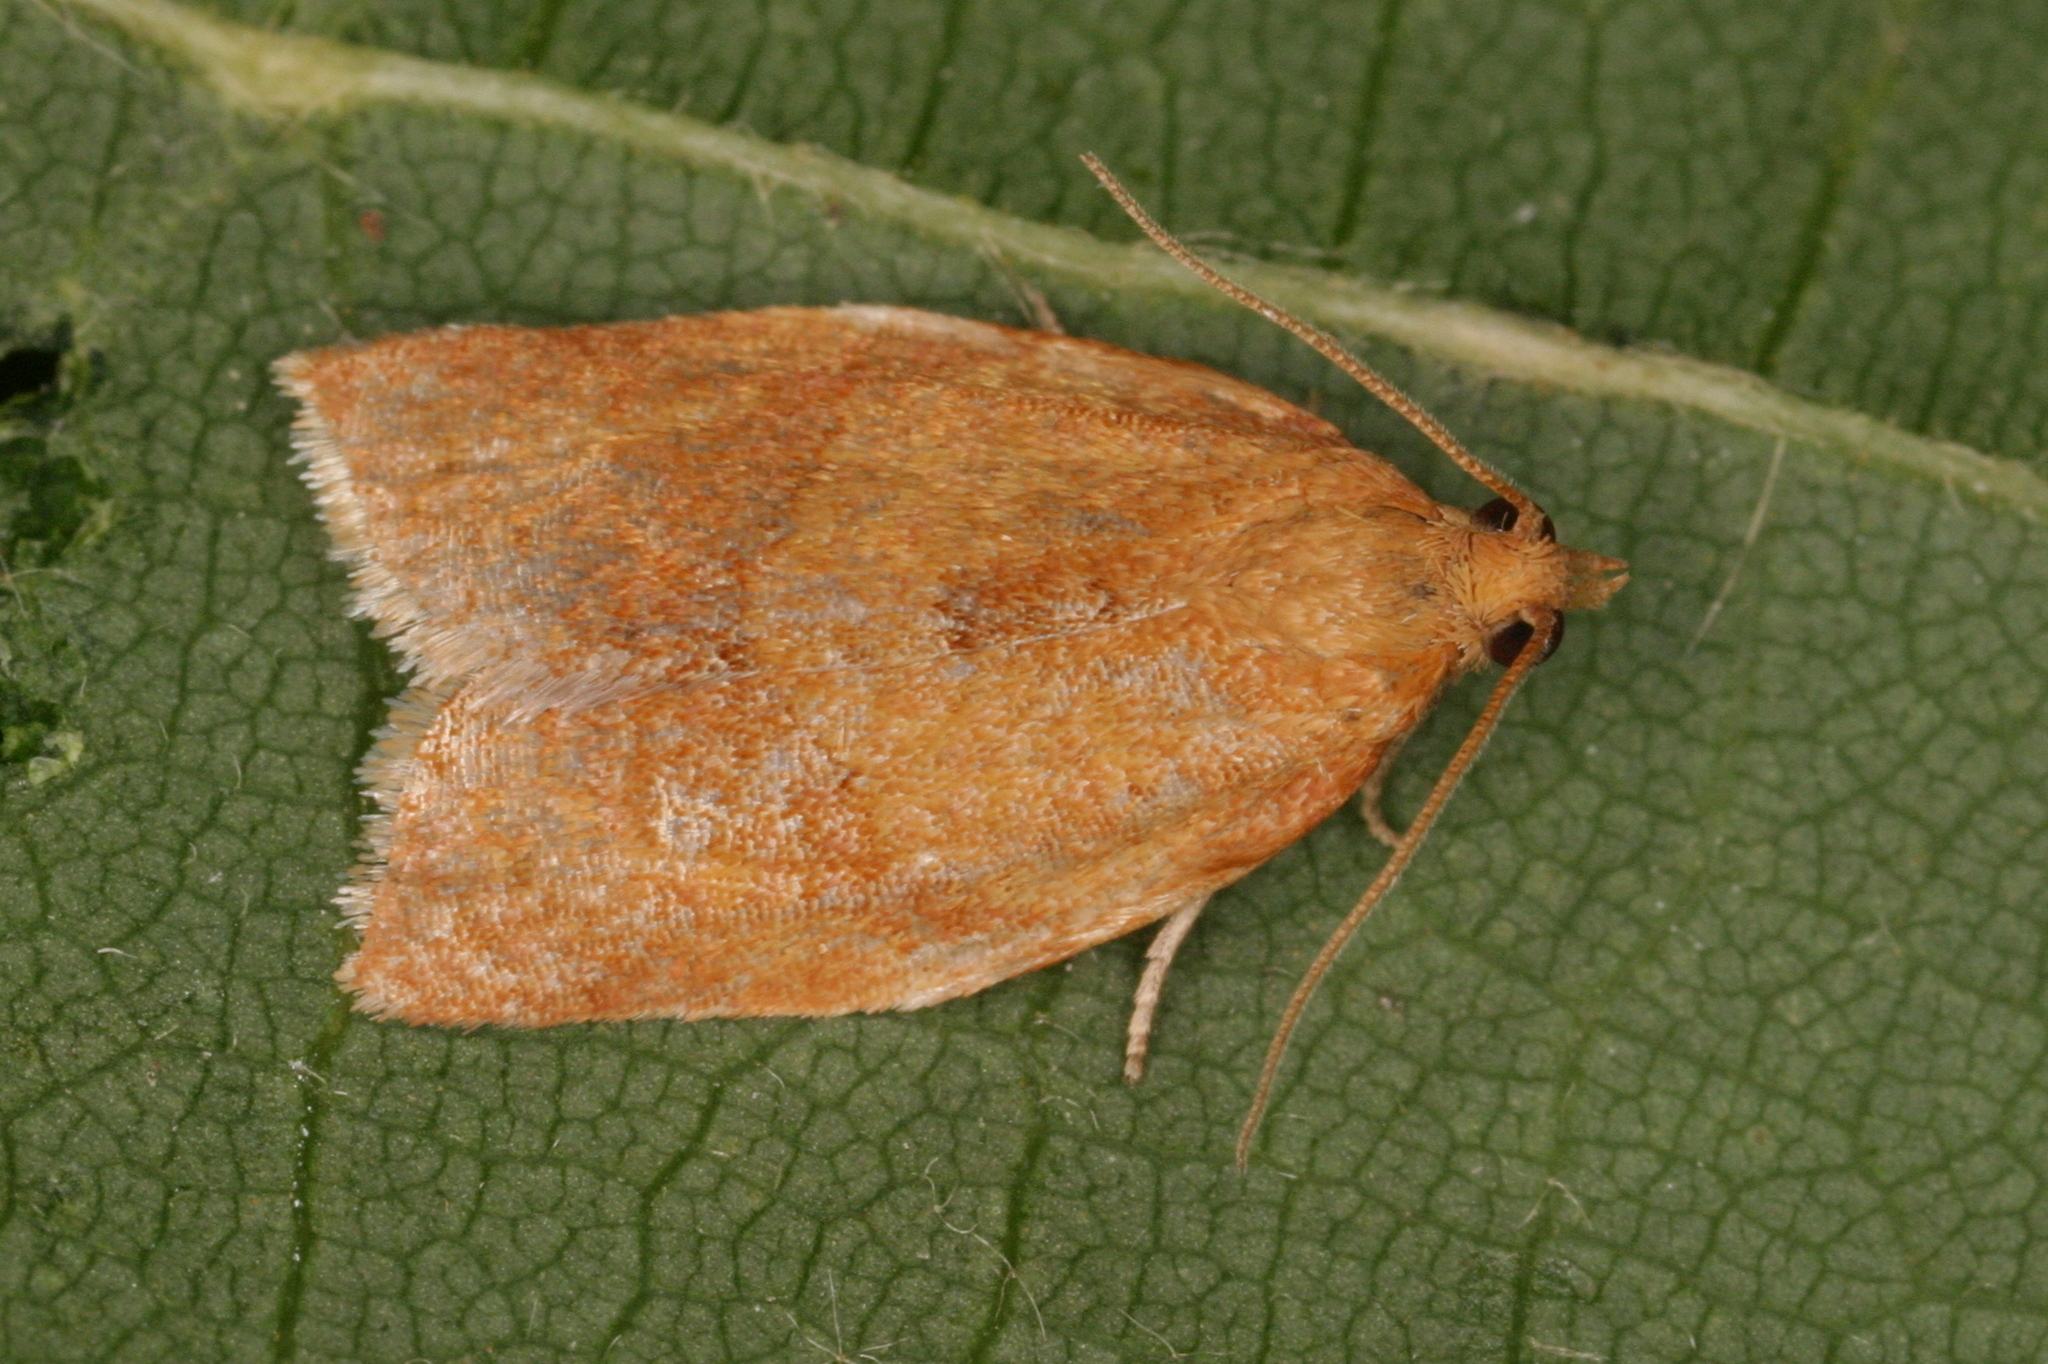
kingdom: Animalia
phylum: Arthropoda
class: Insecta
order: Lepidoptera
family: Tortricidae
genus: Clepsis
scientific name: Clepsis consimilana
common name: Privet tortrix
